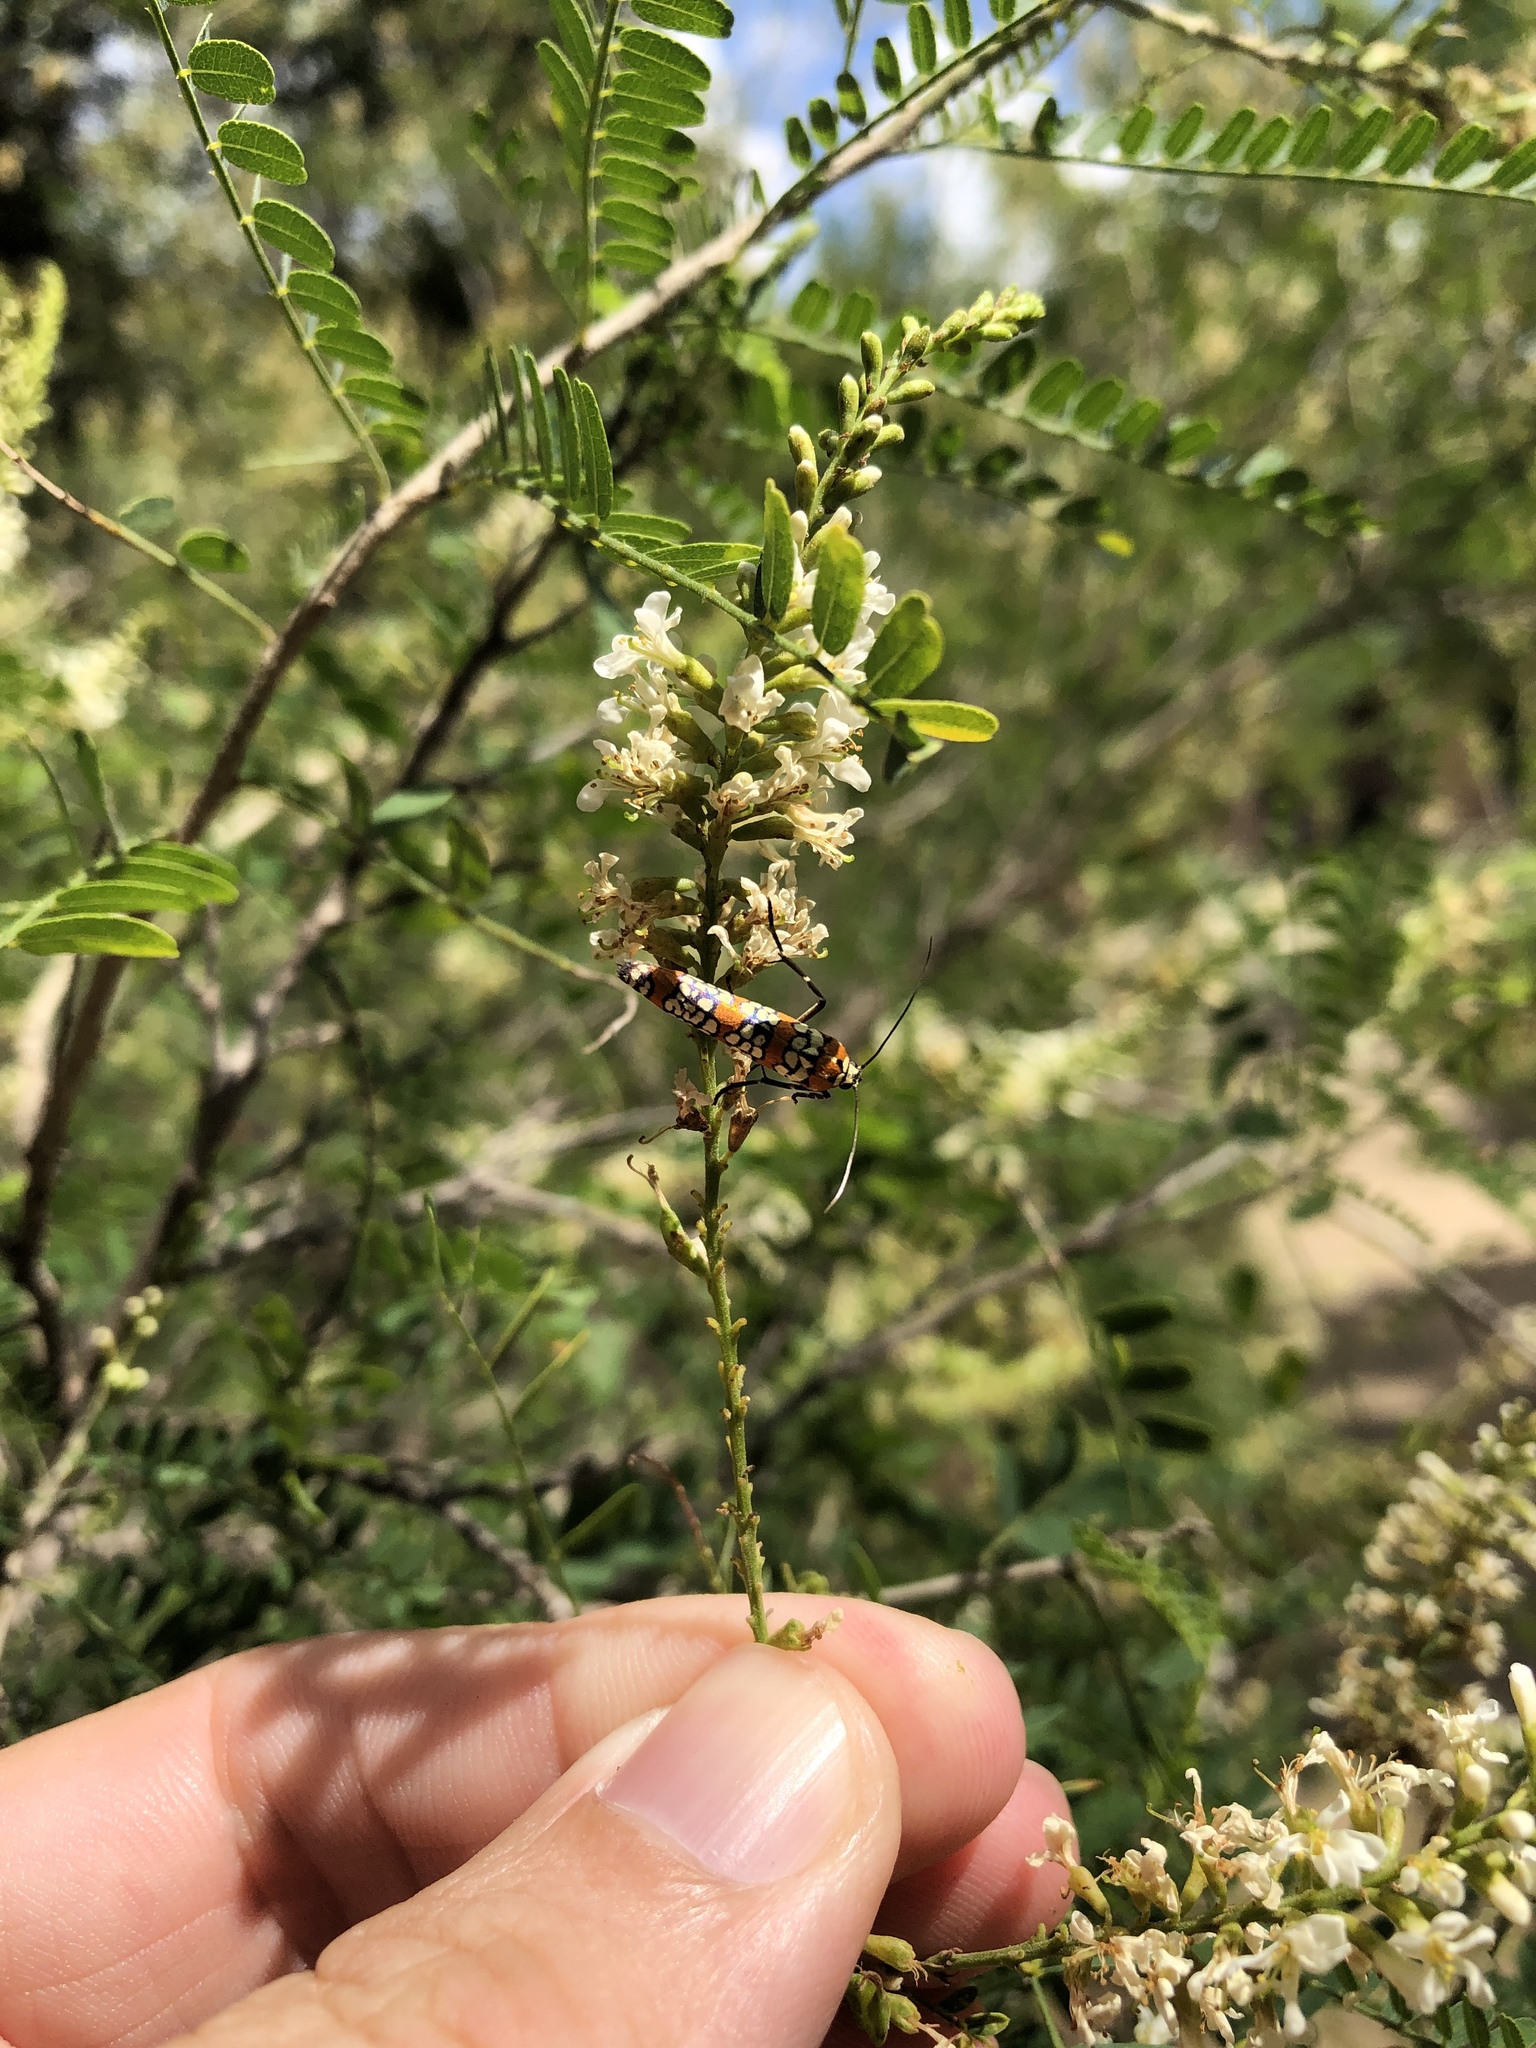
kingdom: Animalia
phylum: Arthropoda
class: Insecta
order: Lepidoptera
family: Attevidae
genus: Atteva
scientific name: Atteva punctella
